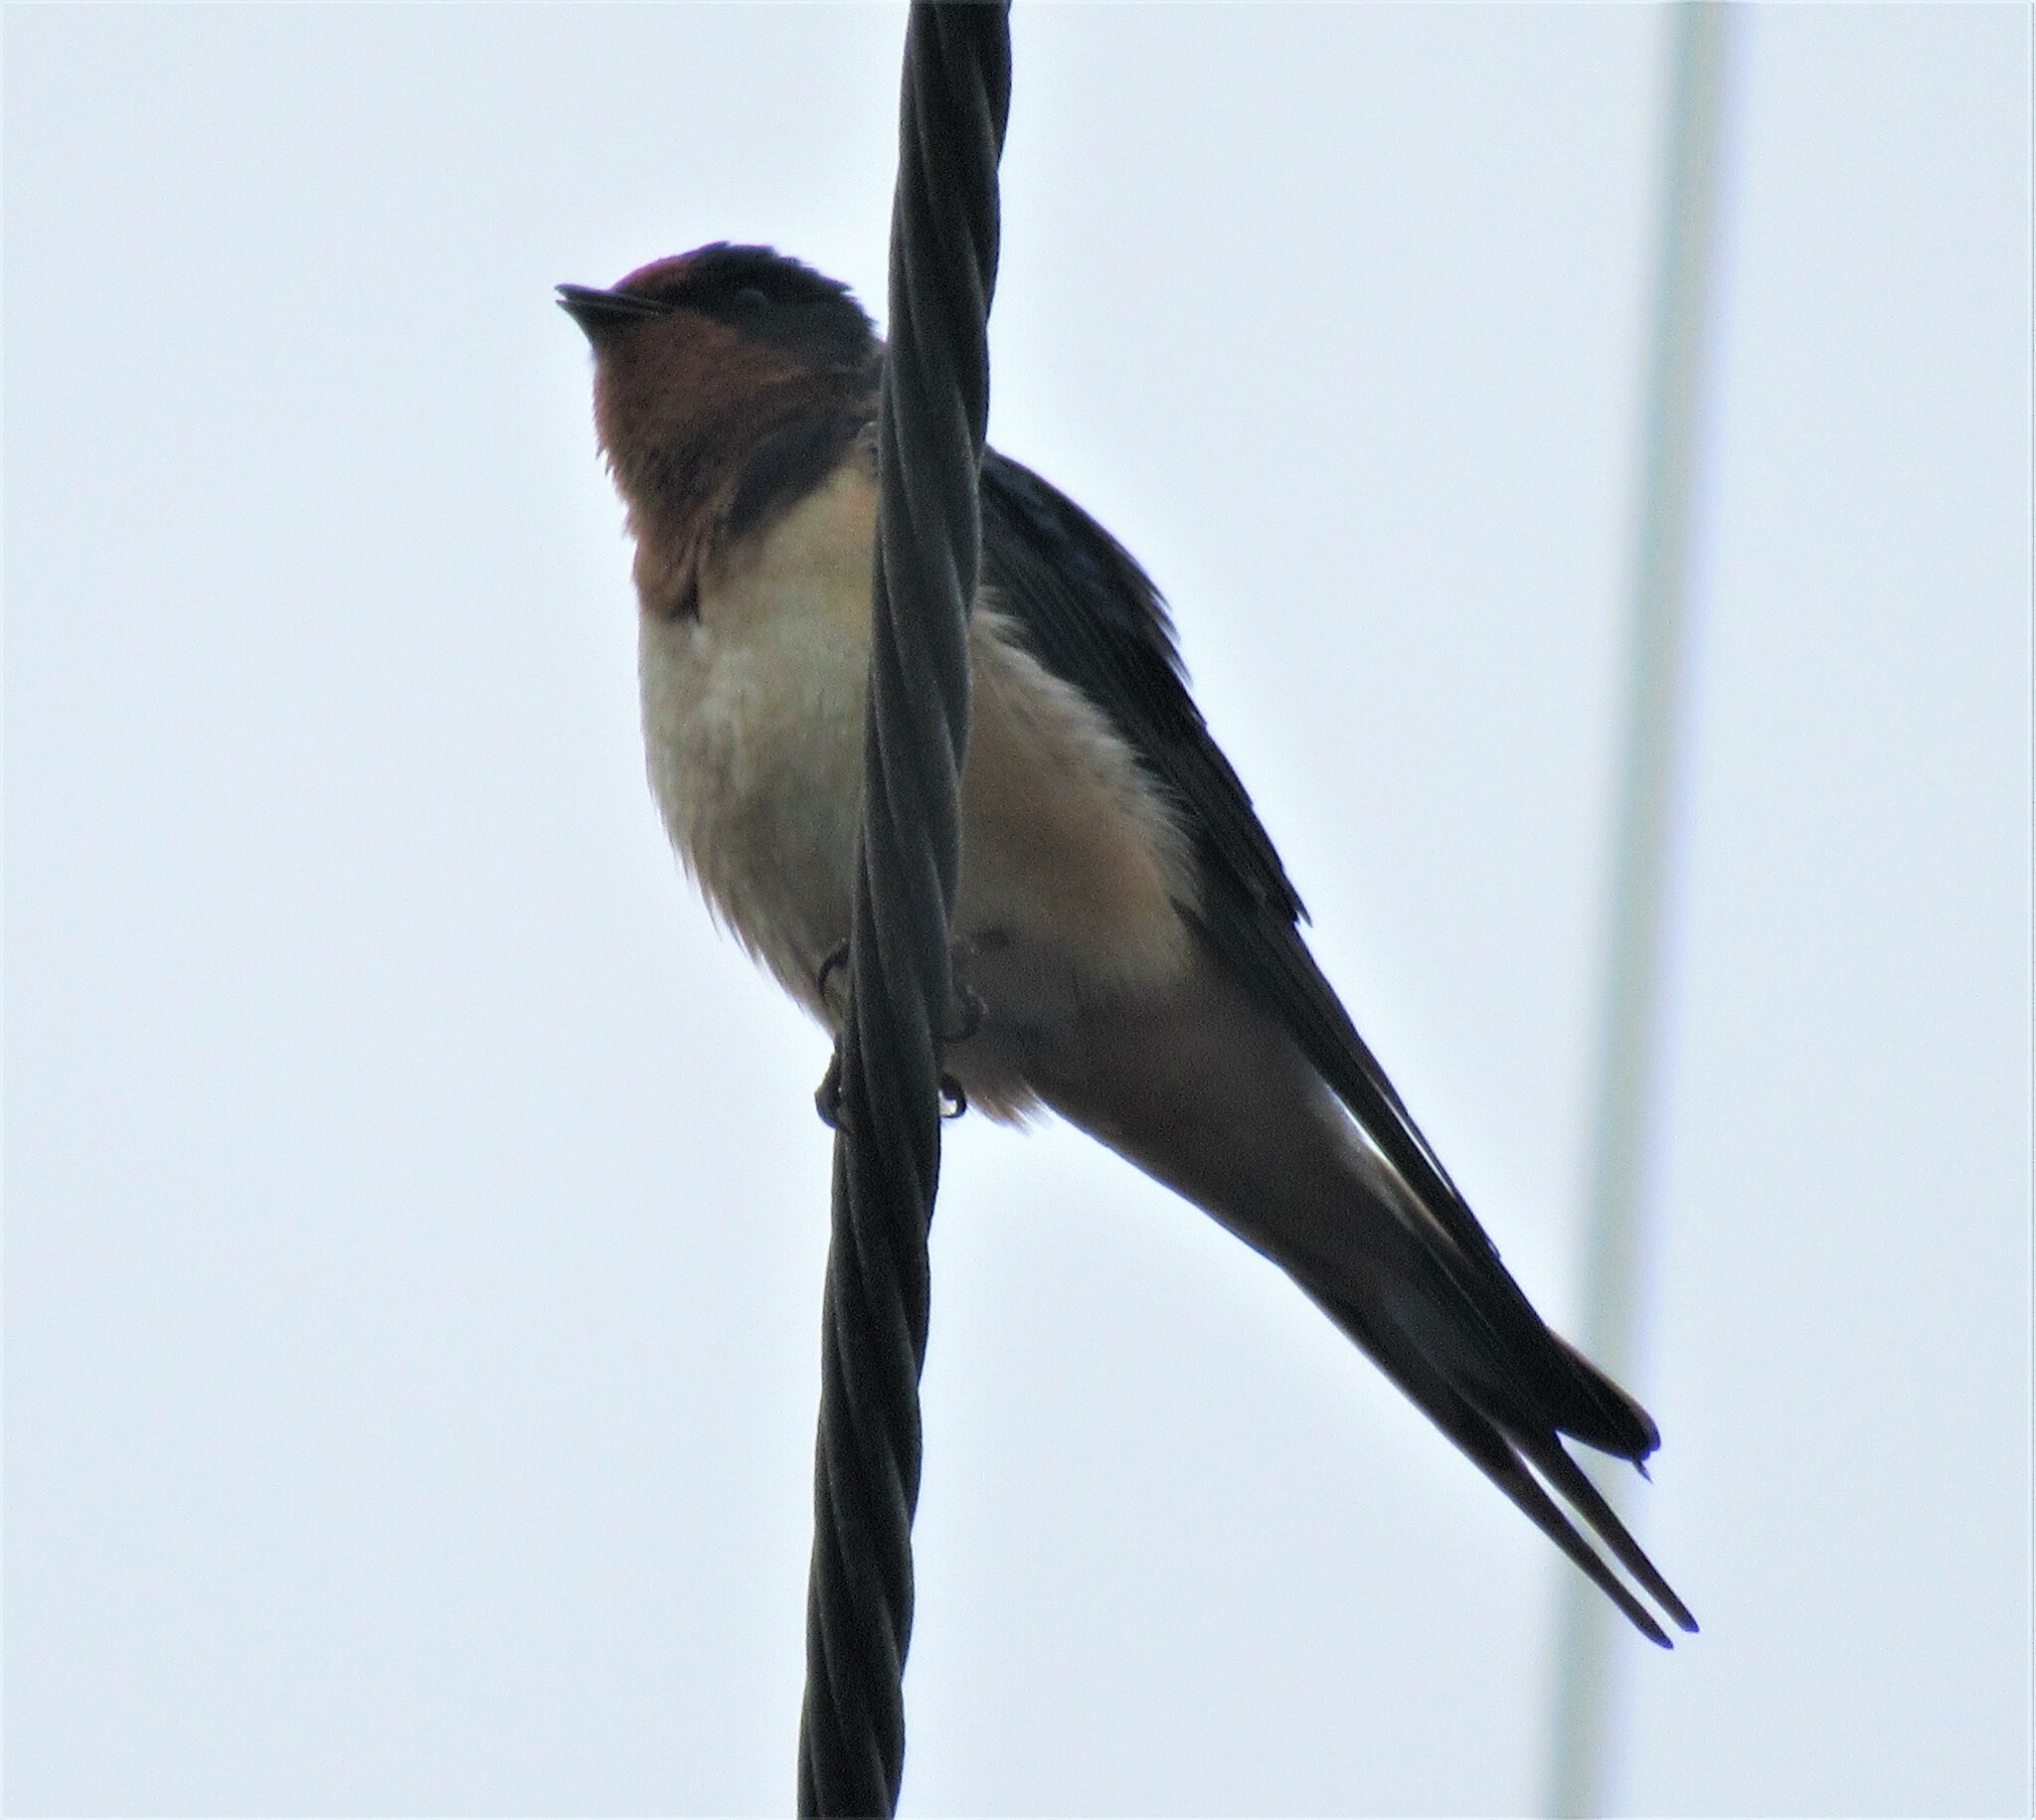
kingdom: Animalia
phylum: Chordata
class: Aves
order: Passeriformes
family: Hirundinidae
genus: Hirundo
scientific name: Hirundo rustica
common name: Barn swallow
